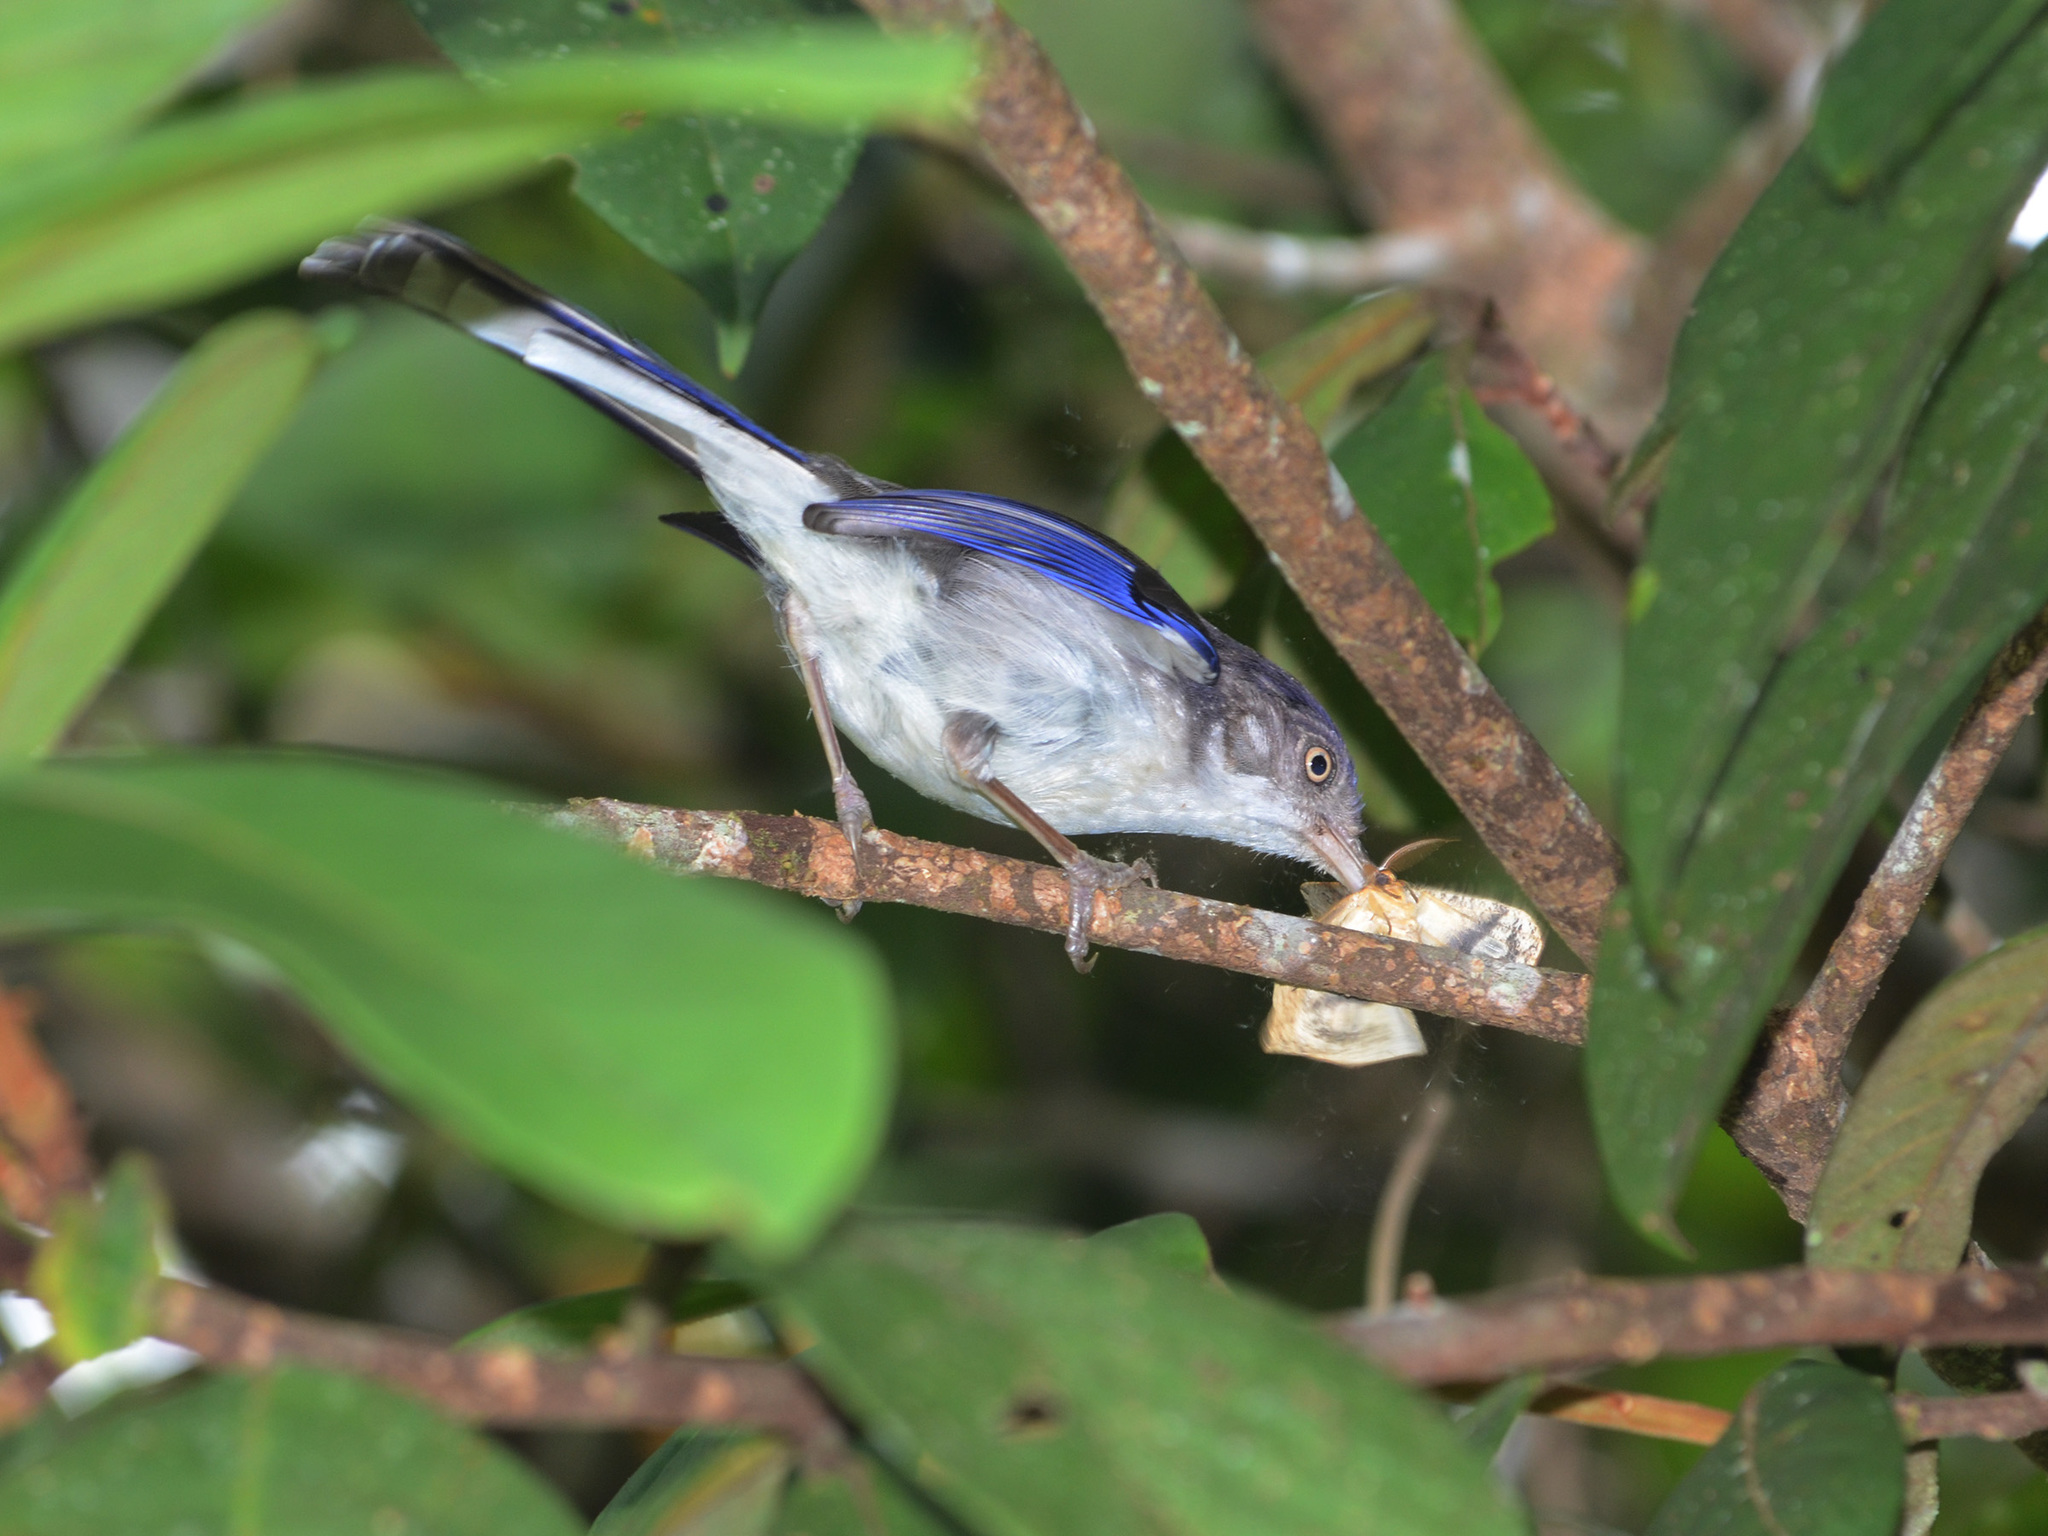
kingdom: Animalia
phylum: Chordata
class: Aves
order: Passeriformes
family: Leiothrichidae
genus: Minla
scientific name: Minla cyanouroptera
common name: Blue-winged minla
